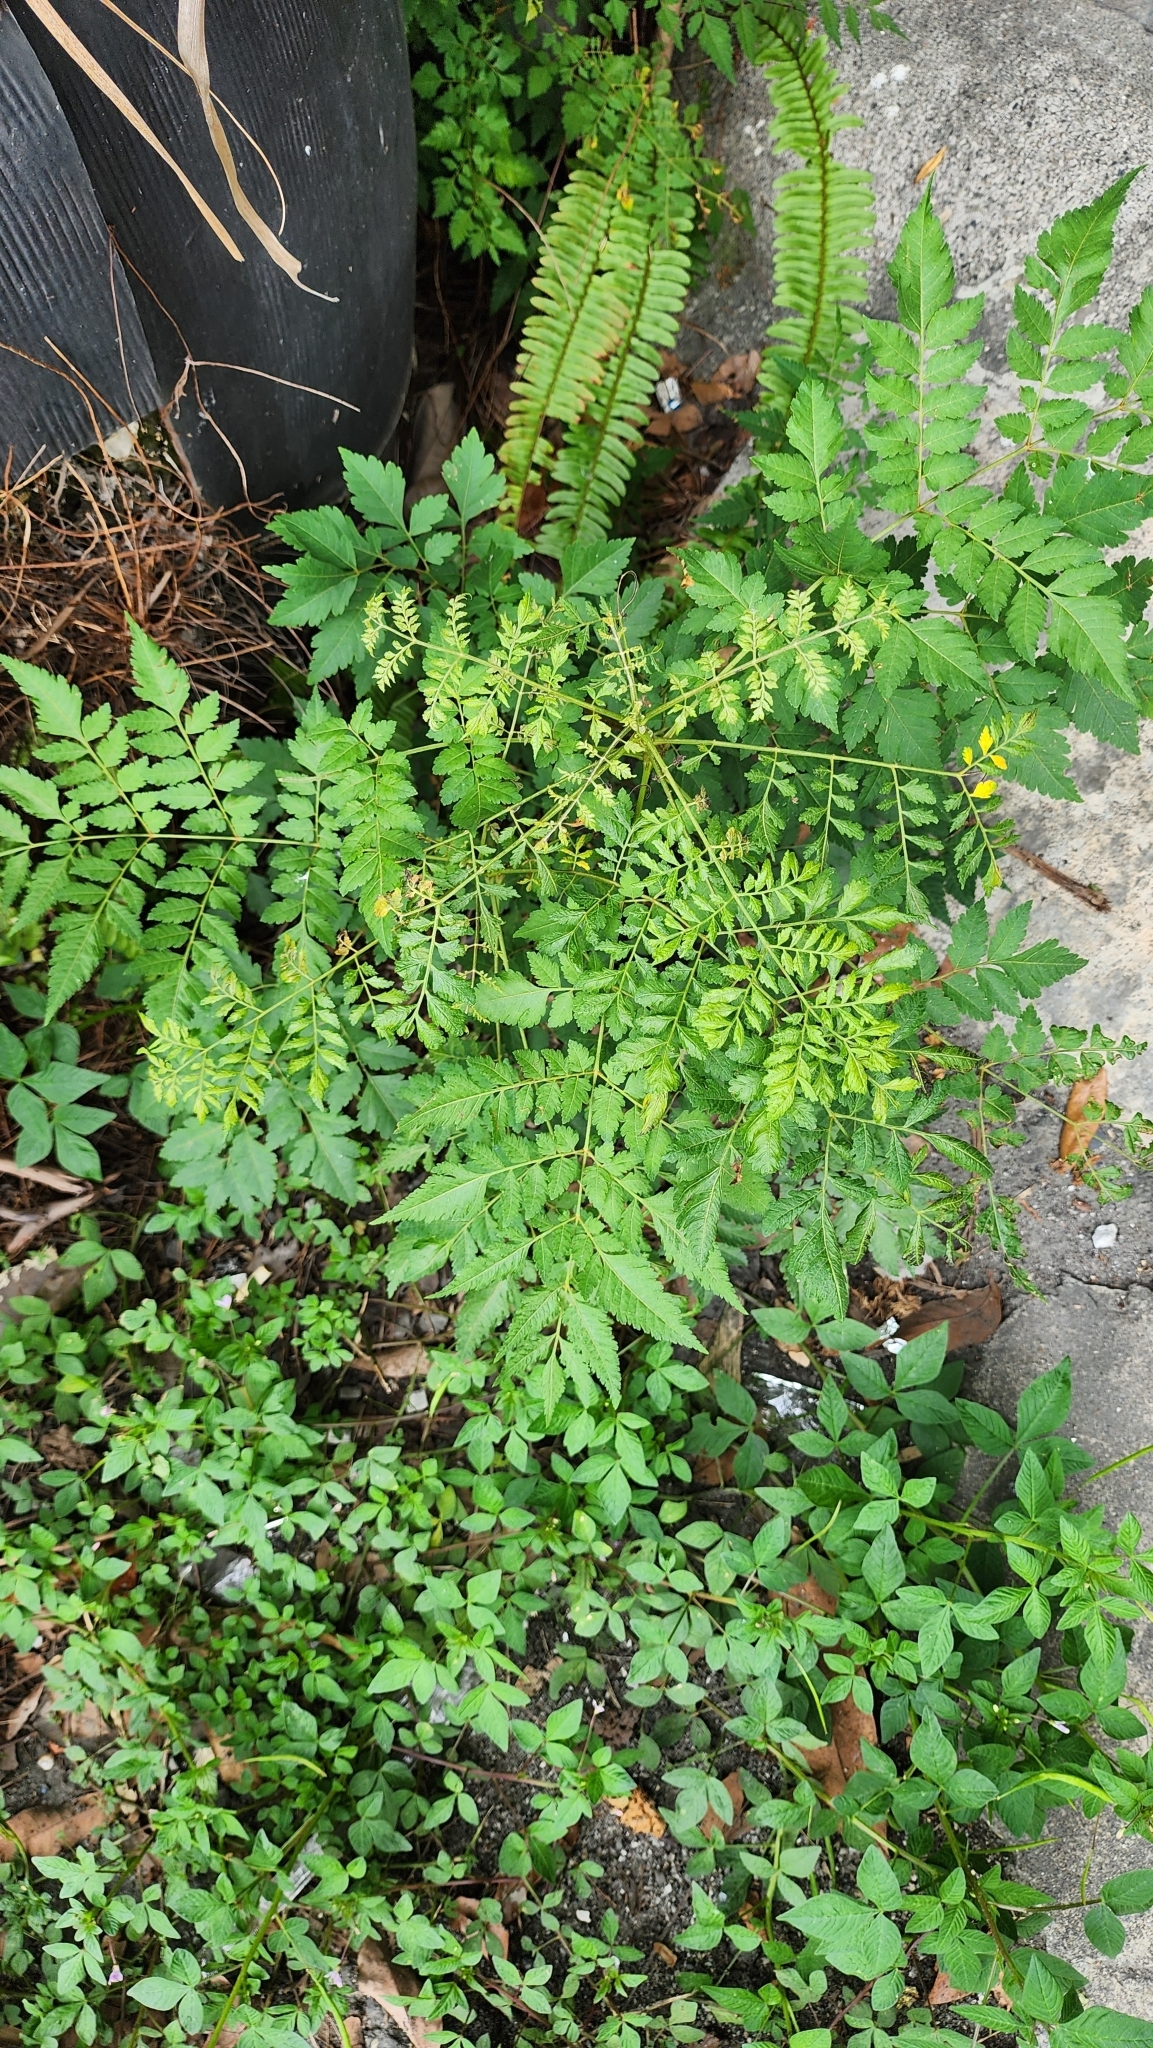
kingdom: Plantae
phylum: Tracheophyta
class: Magnoliopsida
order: Sapindales
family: Sapindaceae
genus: Koelreuteria
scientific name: Koelreuteria elegans
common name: Chinese flame tree
